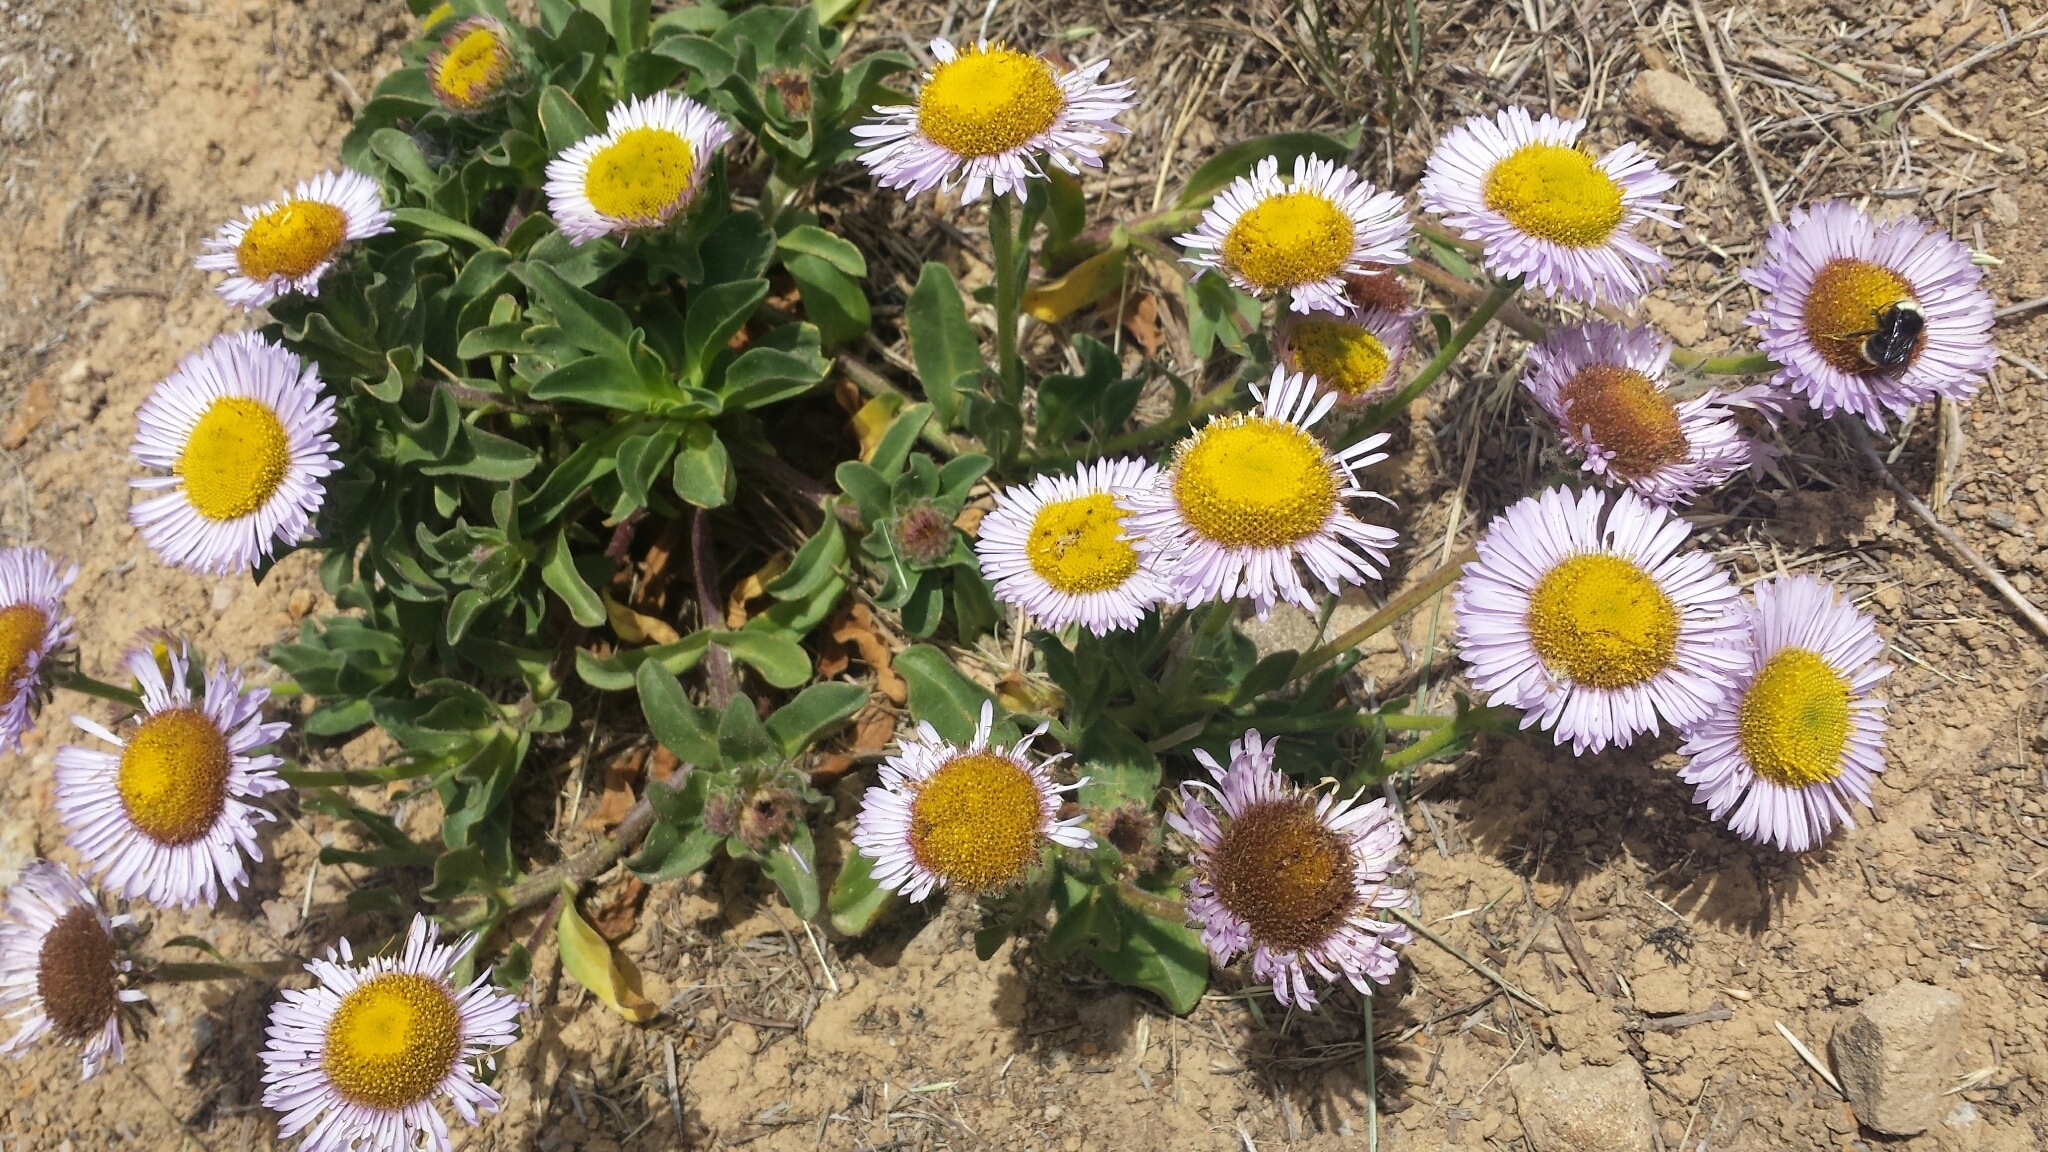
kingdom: Plantae
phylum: Tracheophyta
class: Magnoliopsida
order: Asterales
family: Asteraceae
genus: Erigeron
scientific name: Erigeron glaucus
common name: Seaside daisy
